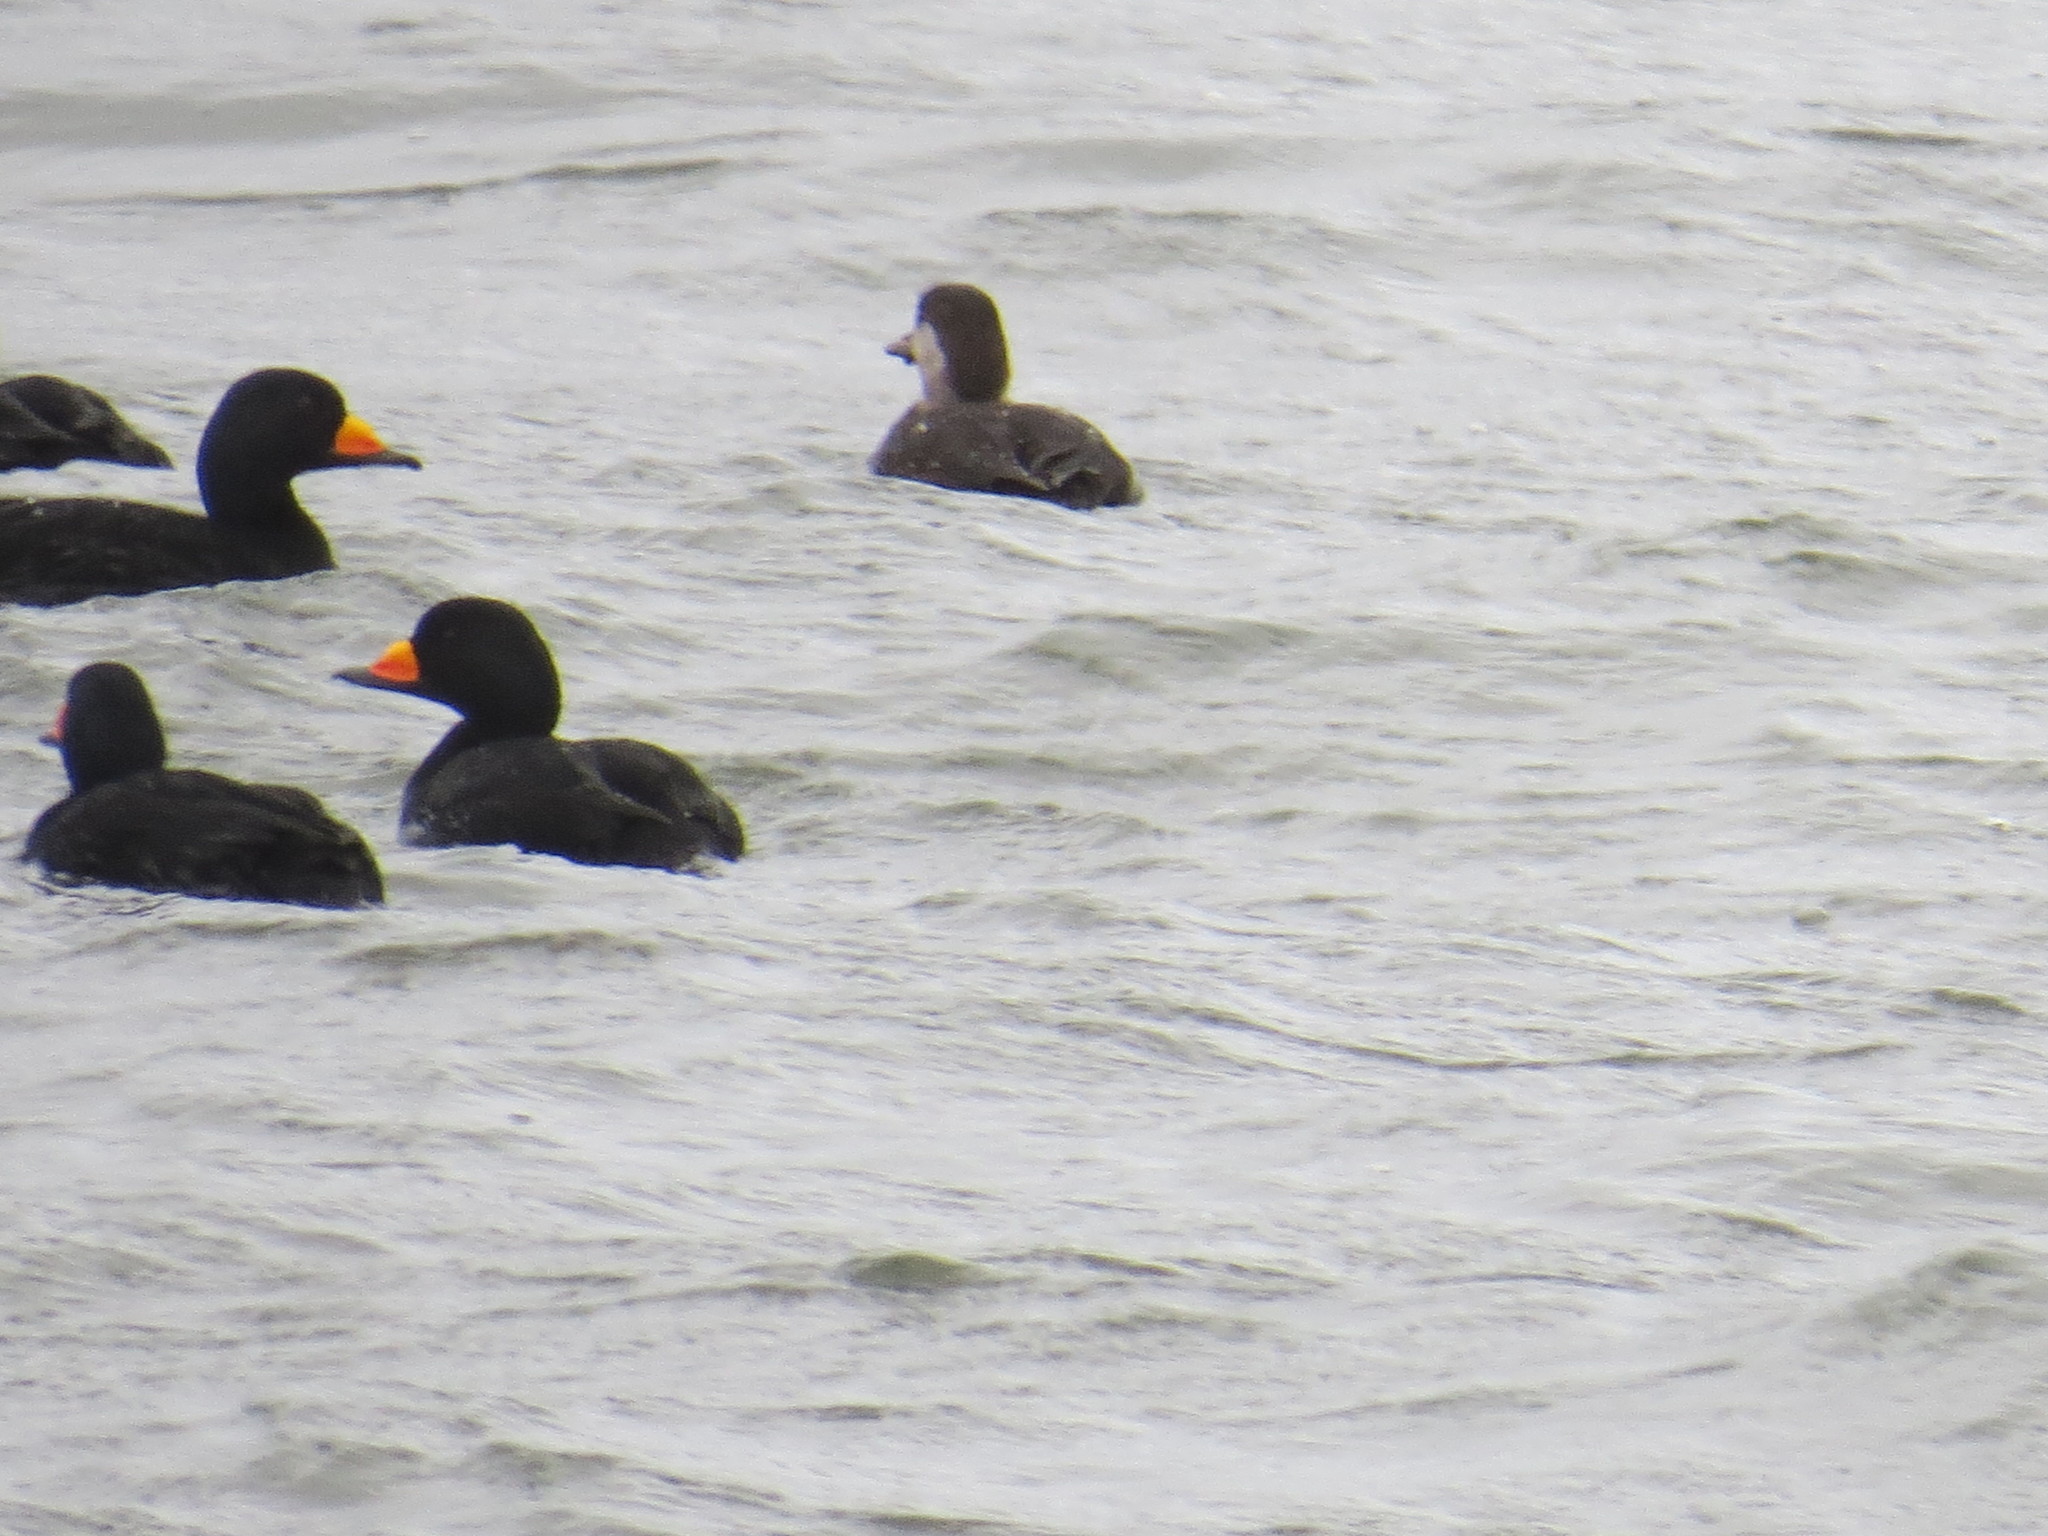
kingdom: Animalia
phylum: Chordata
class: Aves
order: Anseriformes
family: Anatidae
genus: Melanitta
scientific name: Melanitta americana
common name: Black scoter
